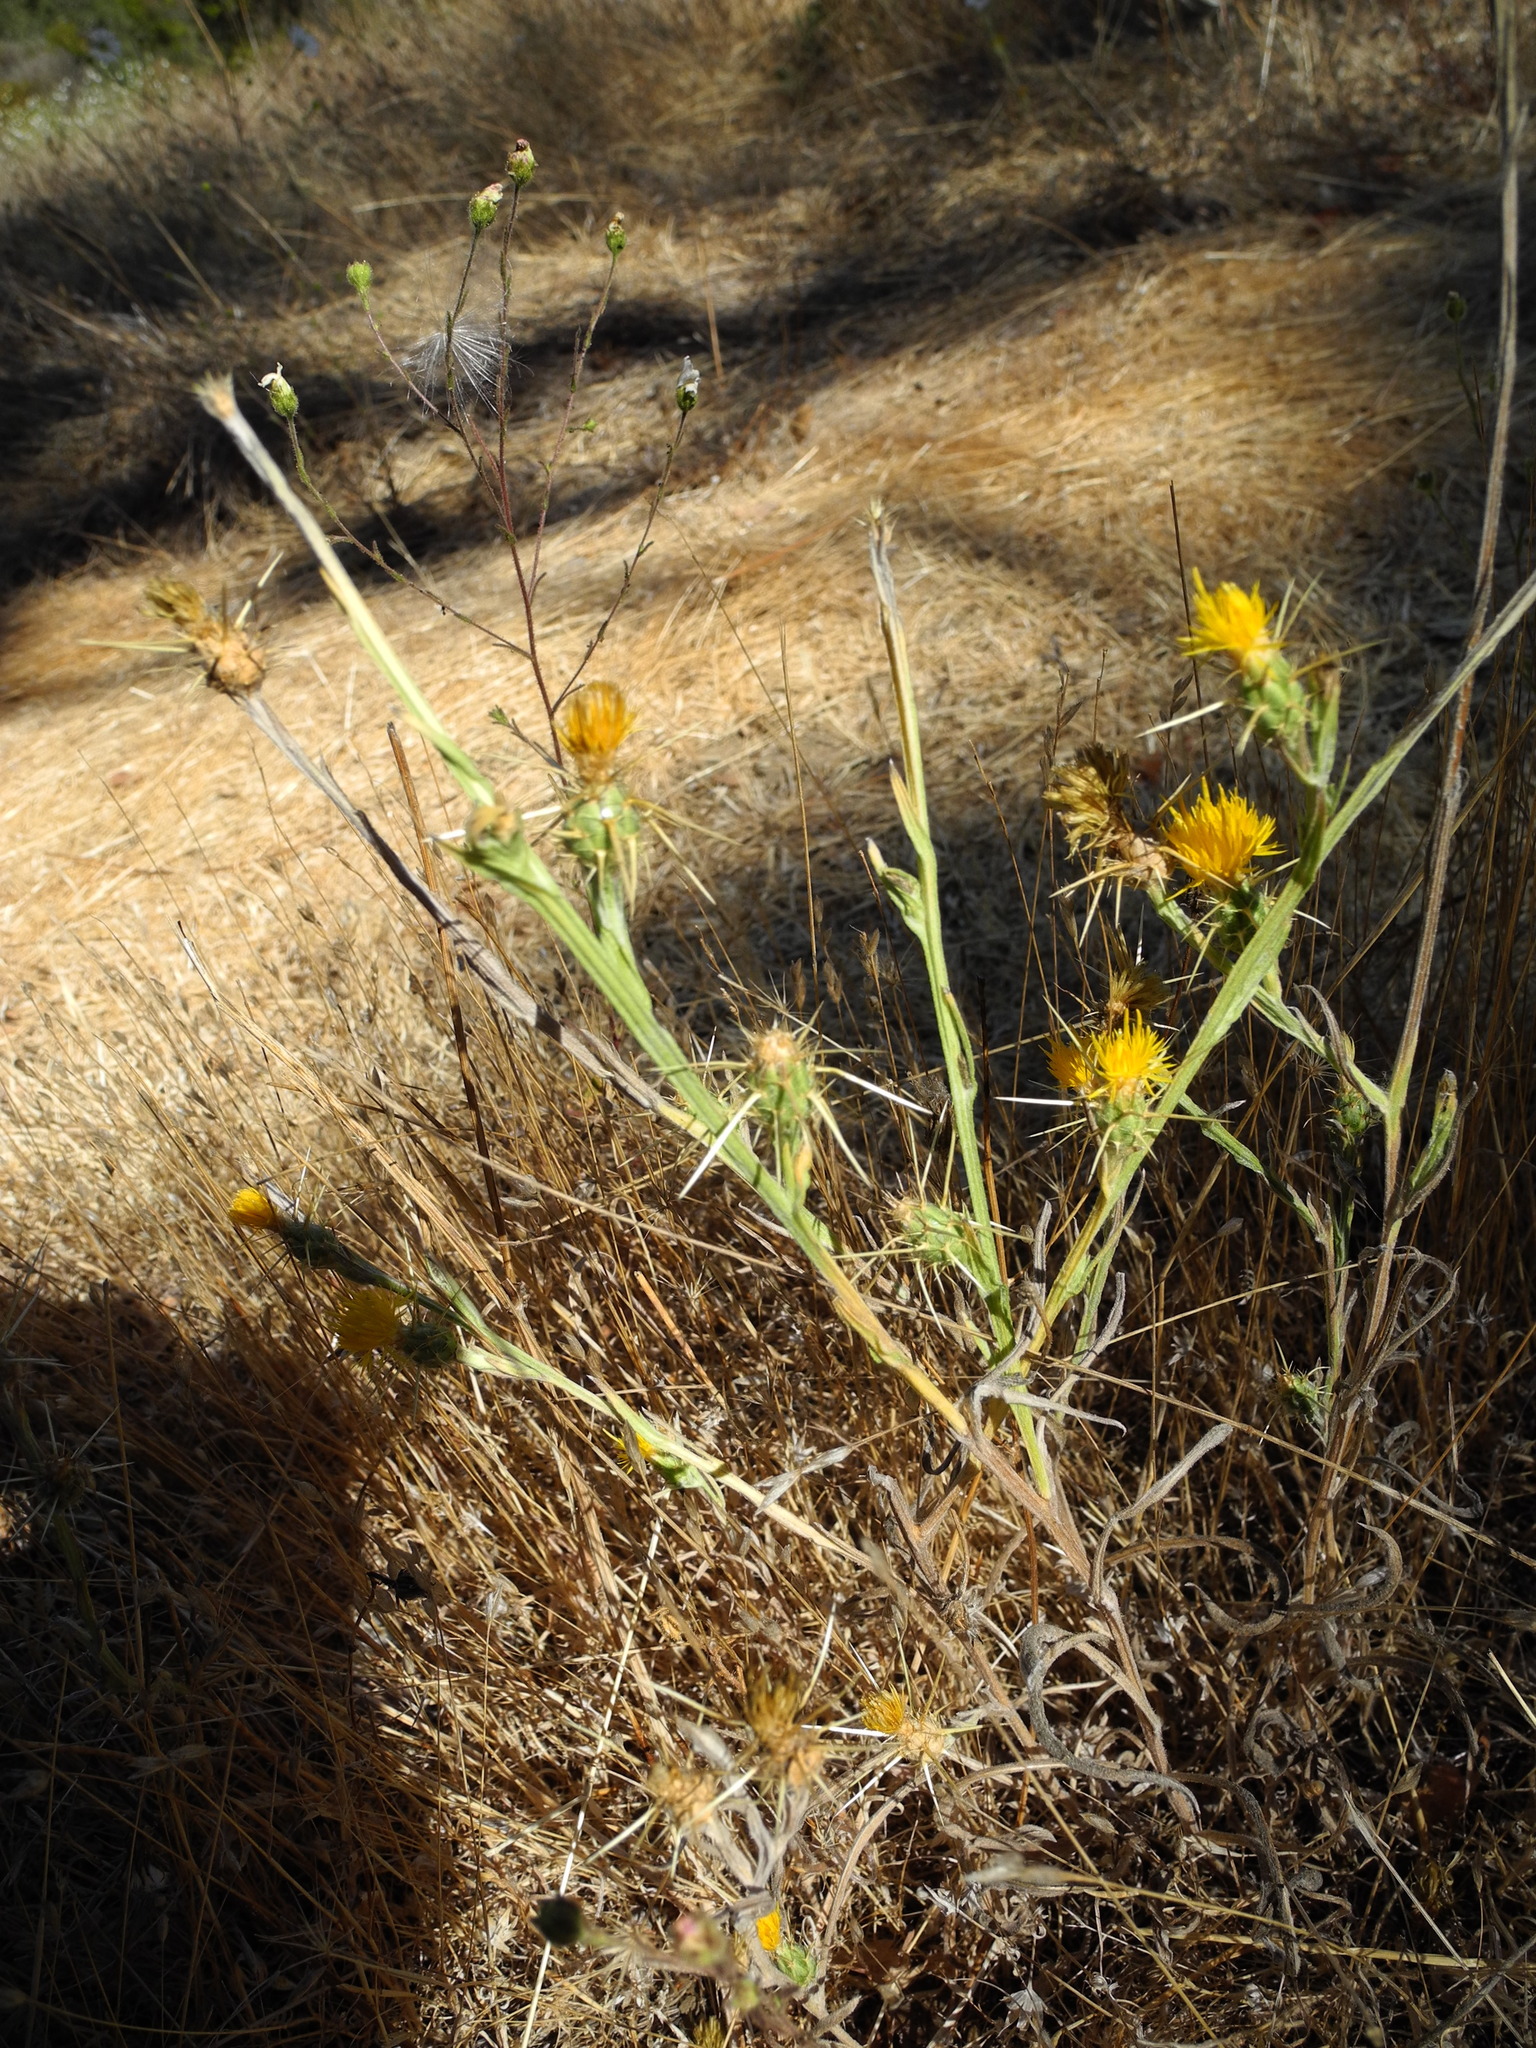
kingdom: Plantae
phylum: Tracheophyta
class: Magnoliopsida
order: Asterales
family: Asteraceae
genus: Centaurea
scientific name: Centaurea solstitialis
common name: Yellow star-thistle
